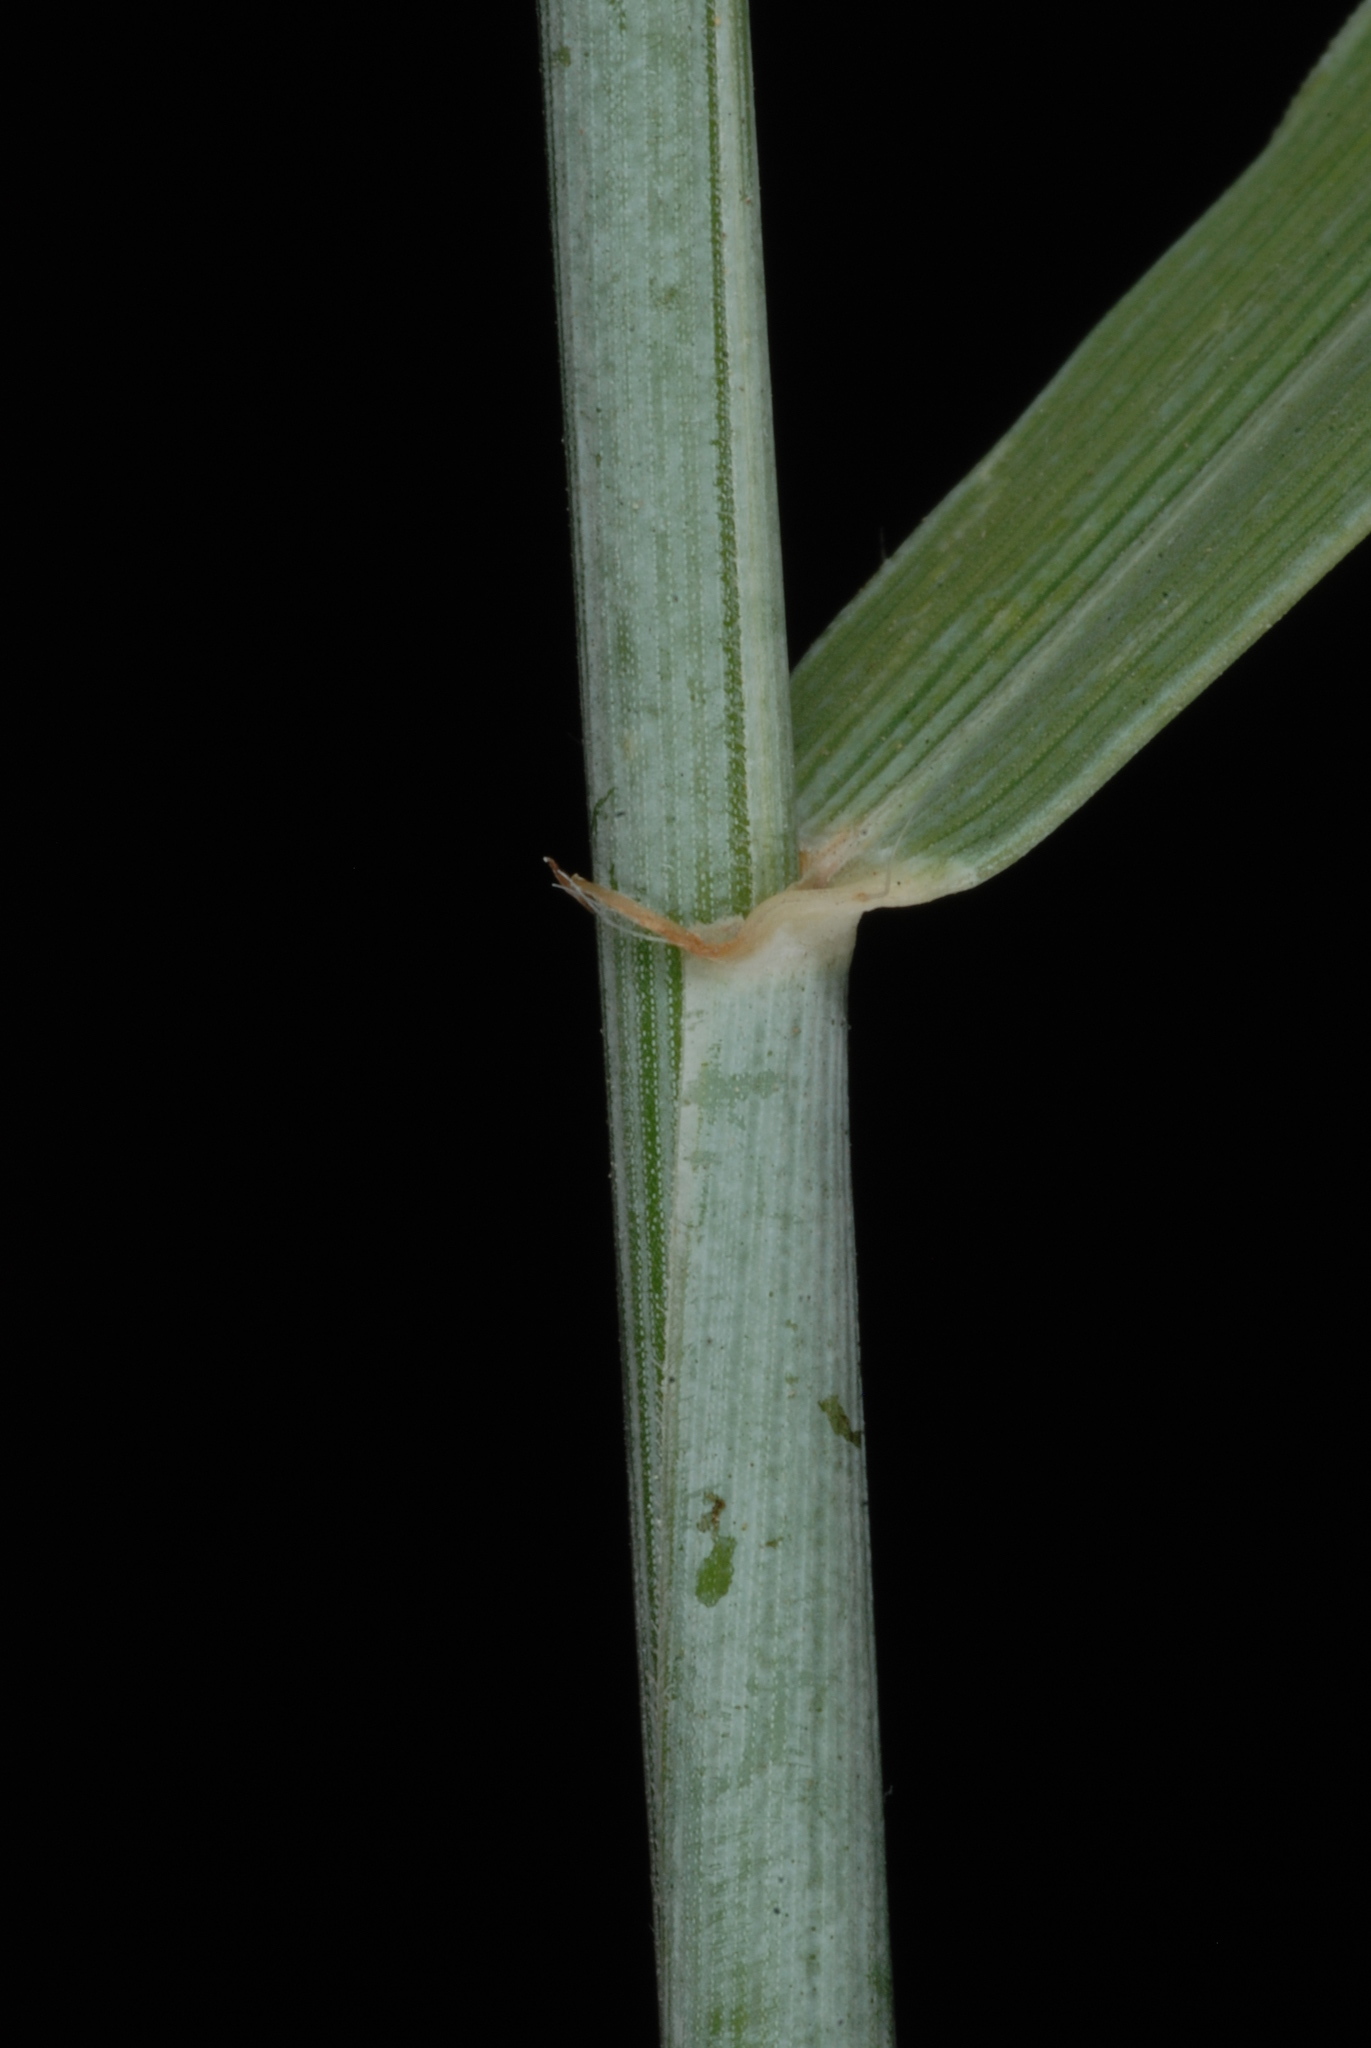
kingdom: Plantae
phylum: Tracheophyta
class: Liliopsida
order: Poales
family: Poaceae
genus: Thinopyrum
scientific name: Thinopyrum intermedium
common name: Intermediate wheatgrass
